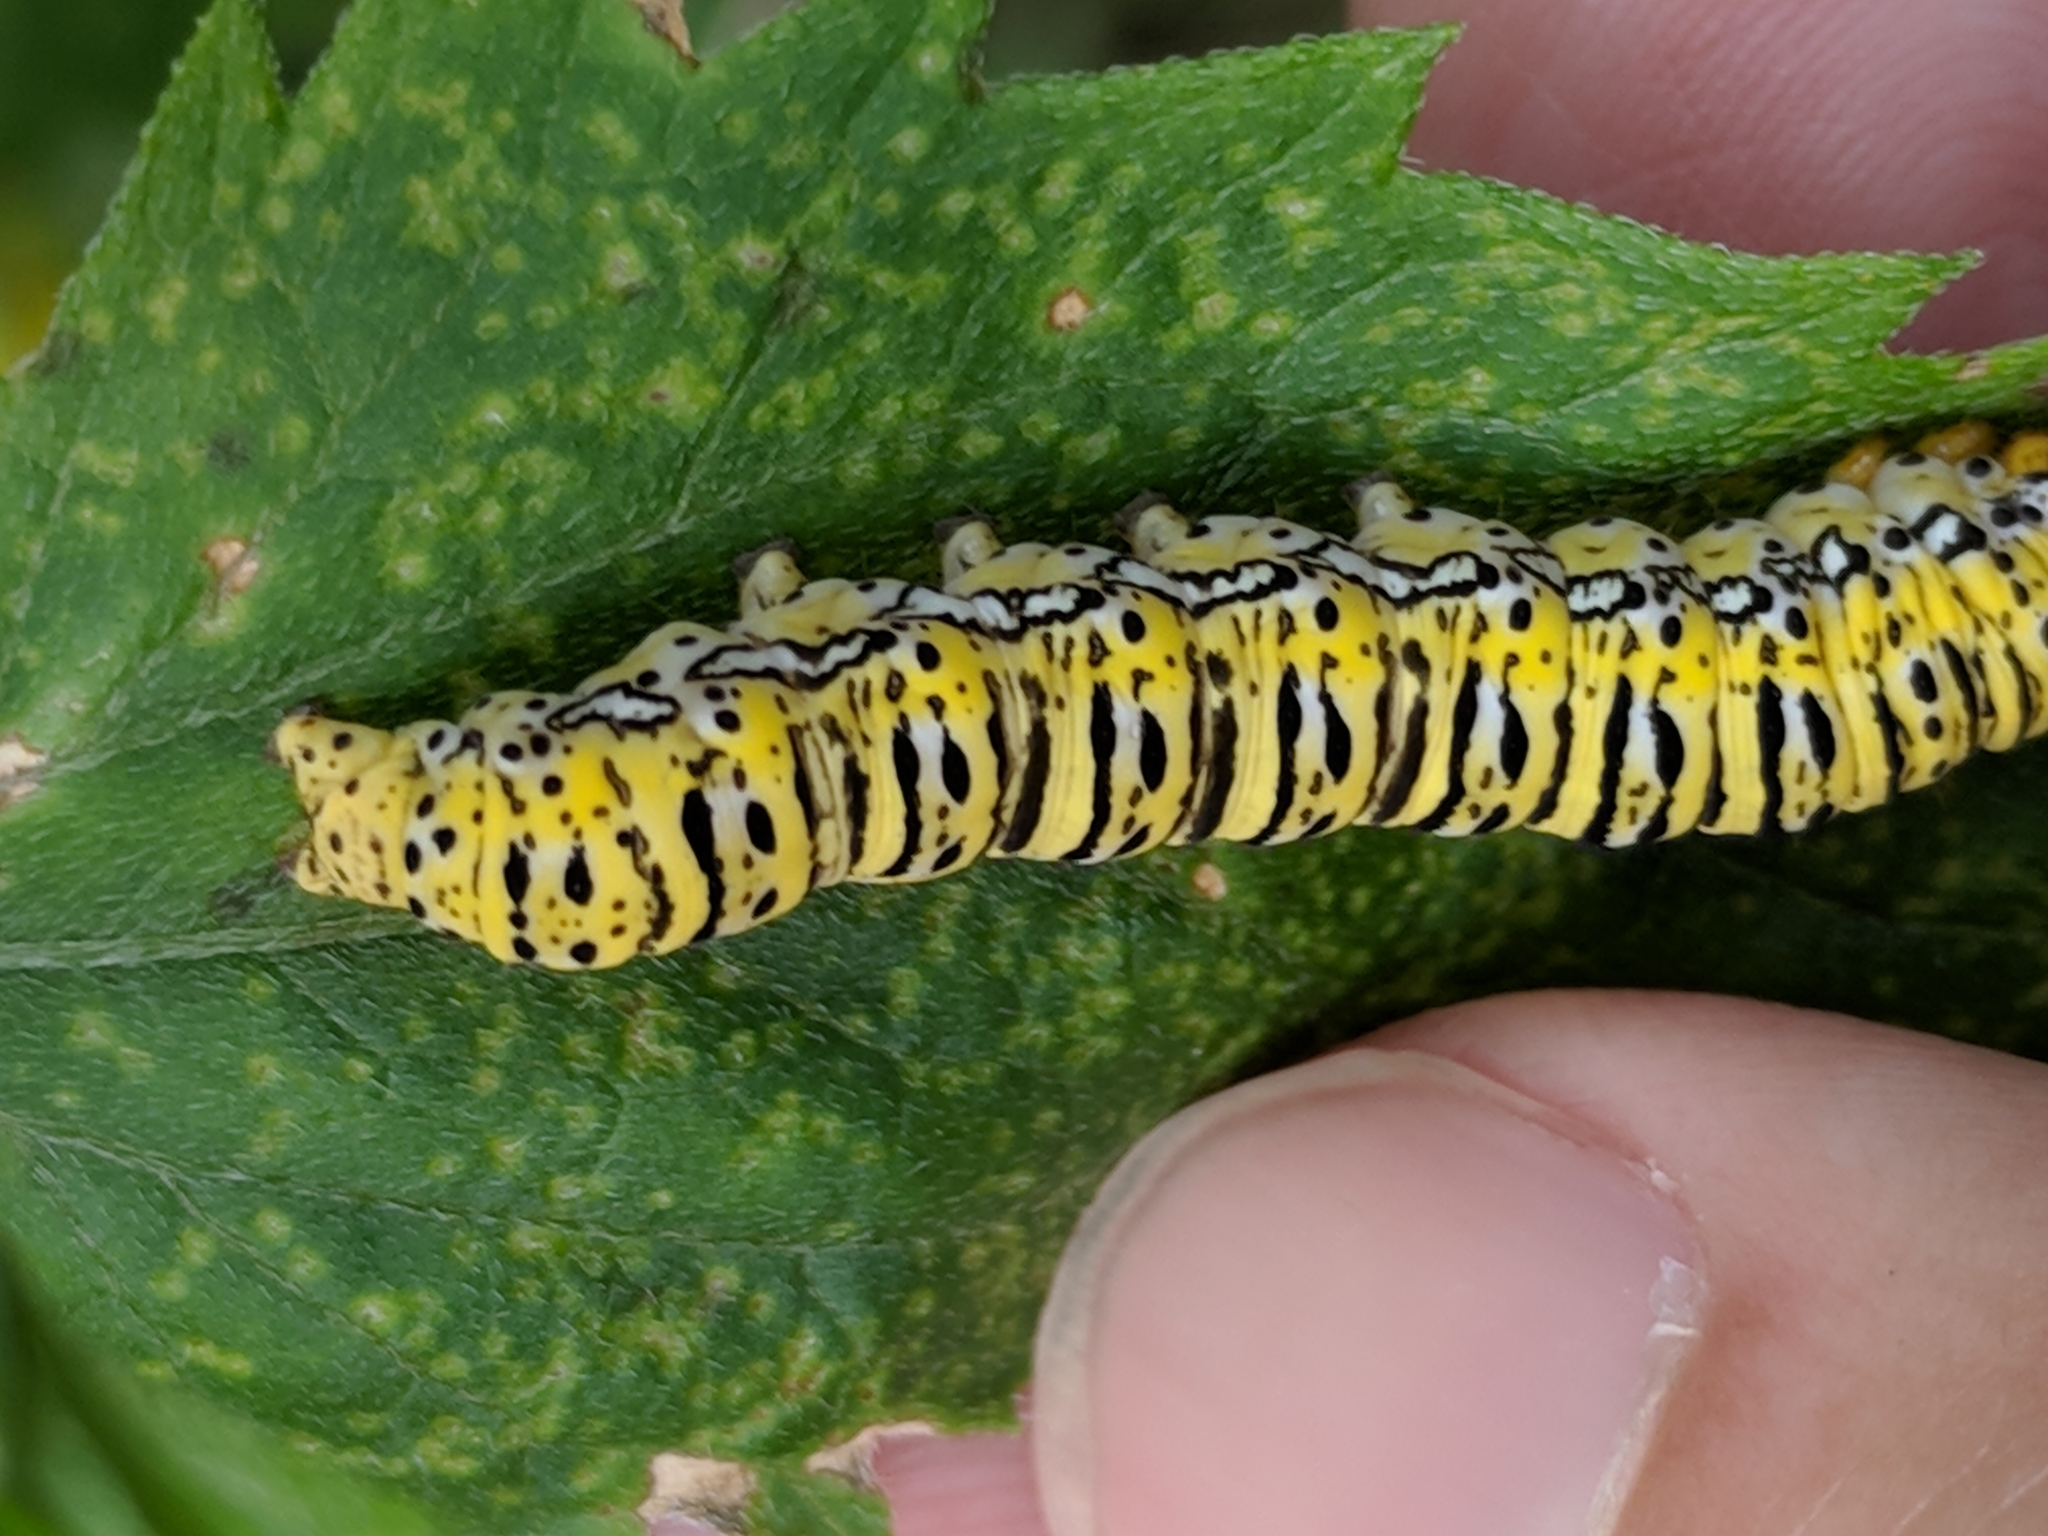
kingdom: Animalia
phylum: Arthropoda
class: Insecta
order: Lepidoptera
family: Noctuidae
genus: Basilodes
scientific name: Basilodes chrysopis
